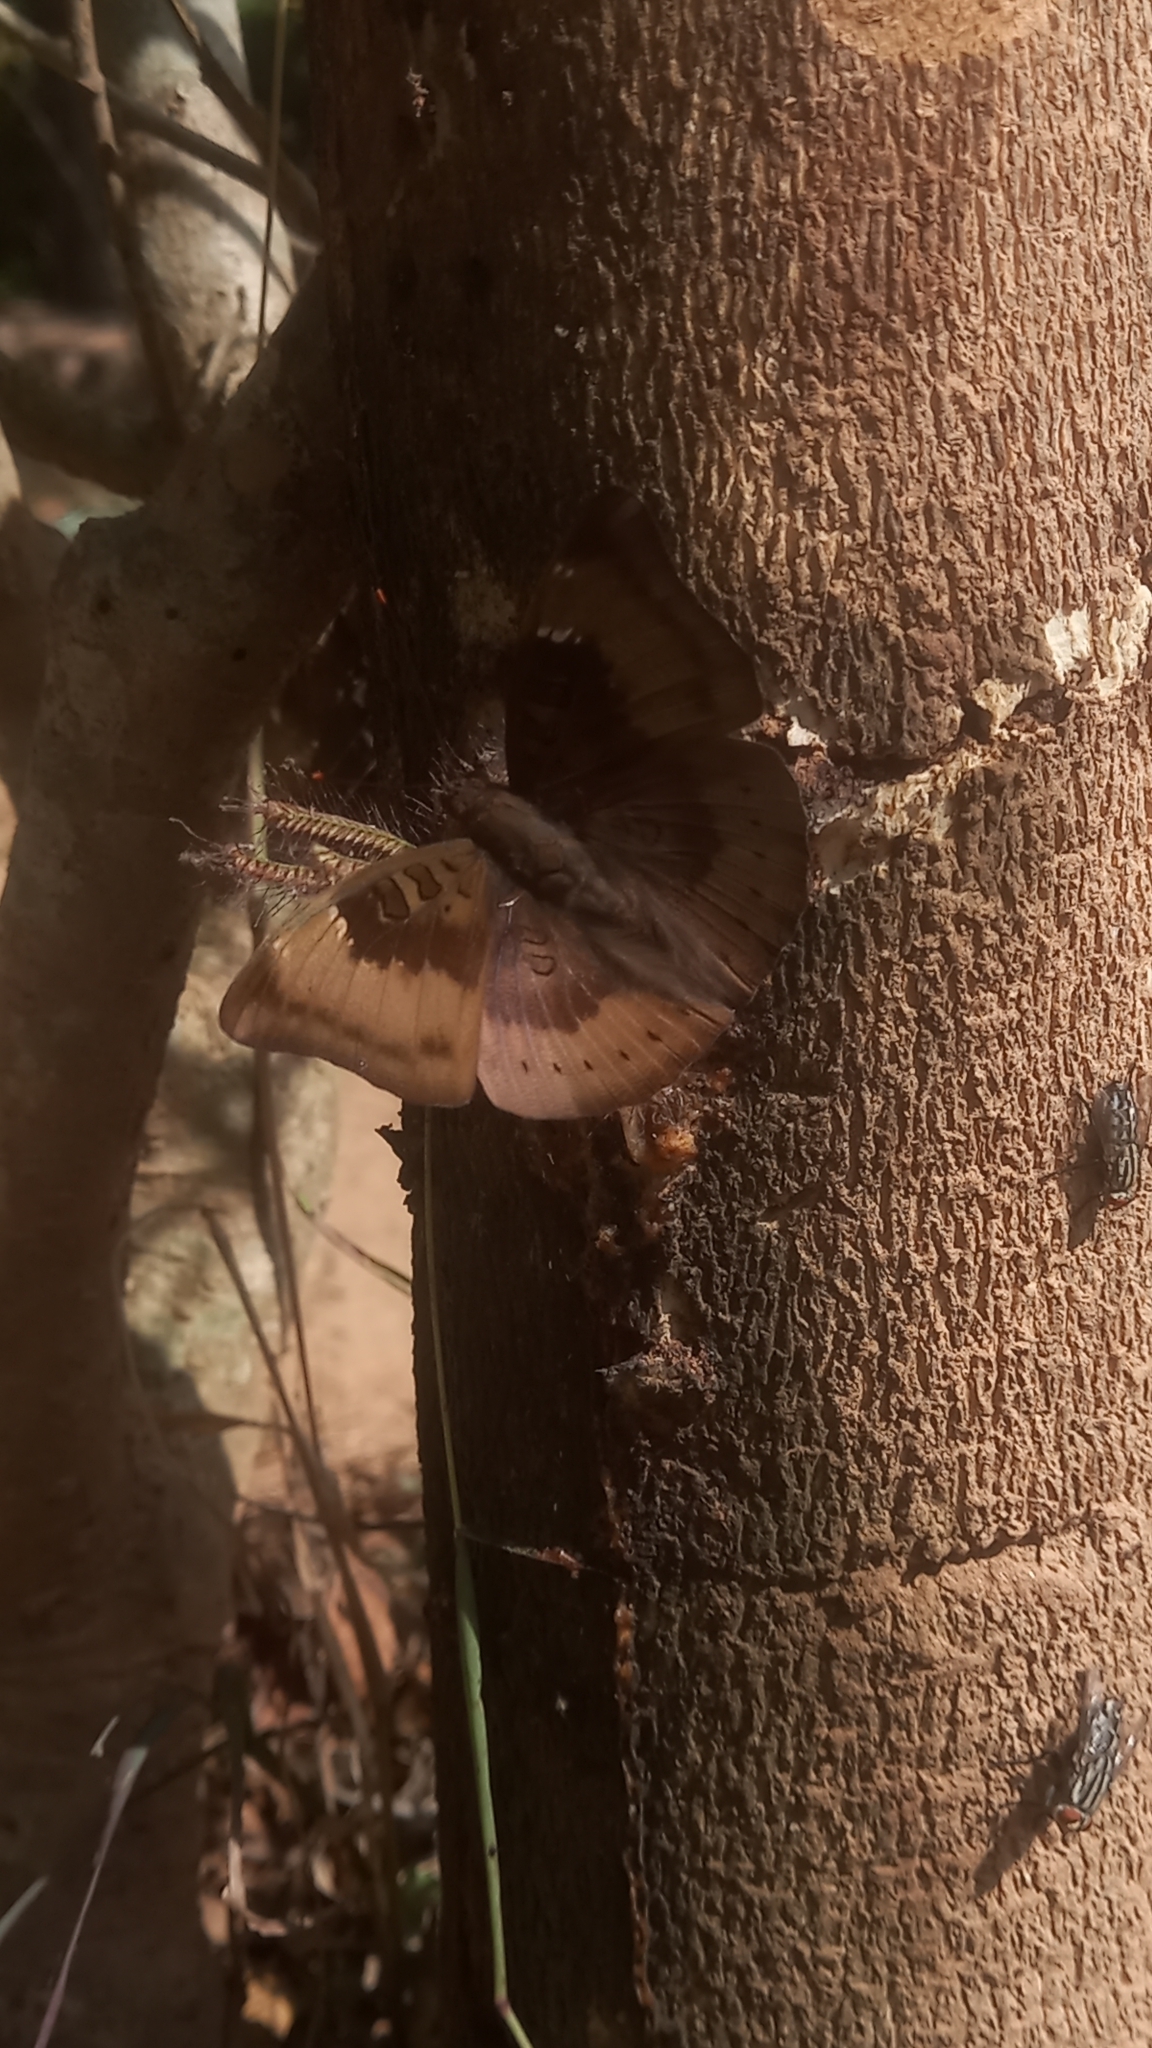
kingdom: Animalia
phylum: Arthropoda
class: Insecta
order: Lepidoptera
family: Nymphalidae
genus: Euthalia
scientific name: Euthalia aconthea
